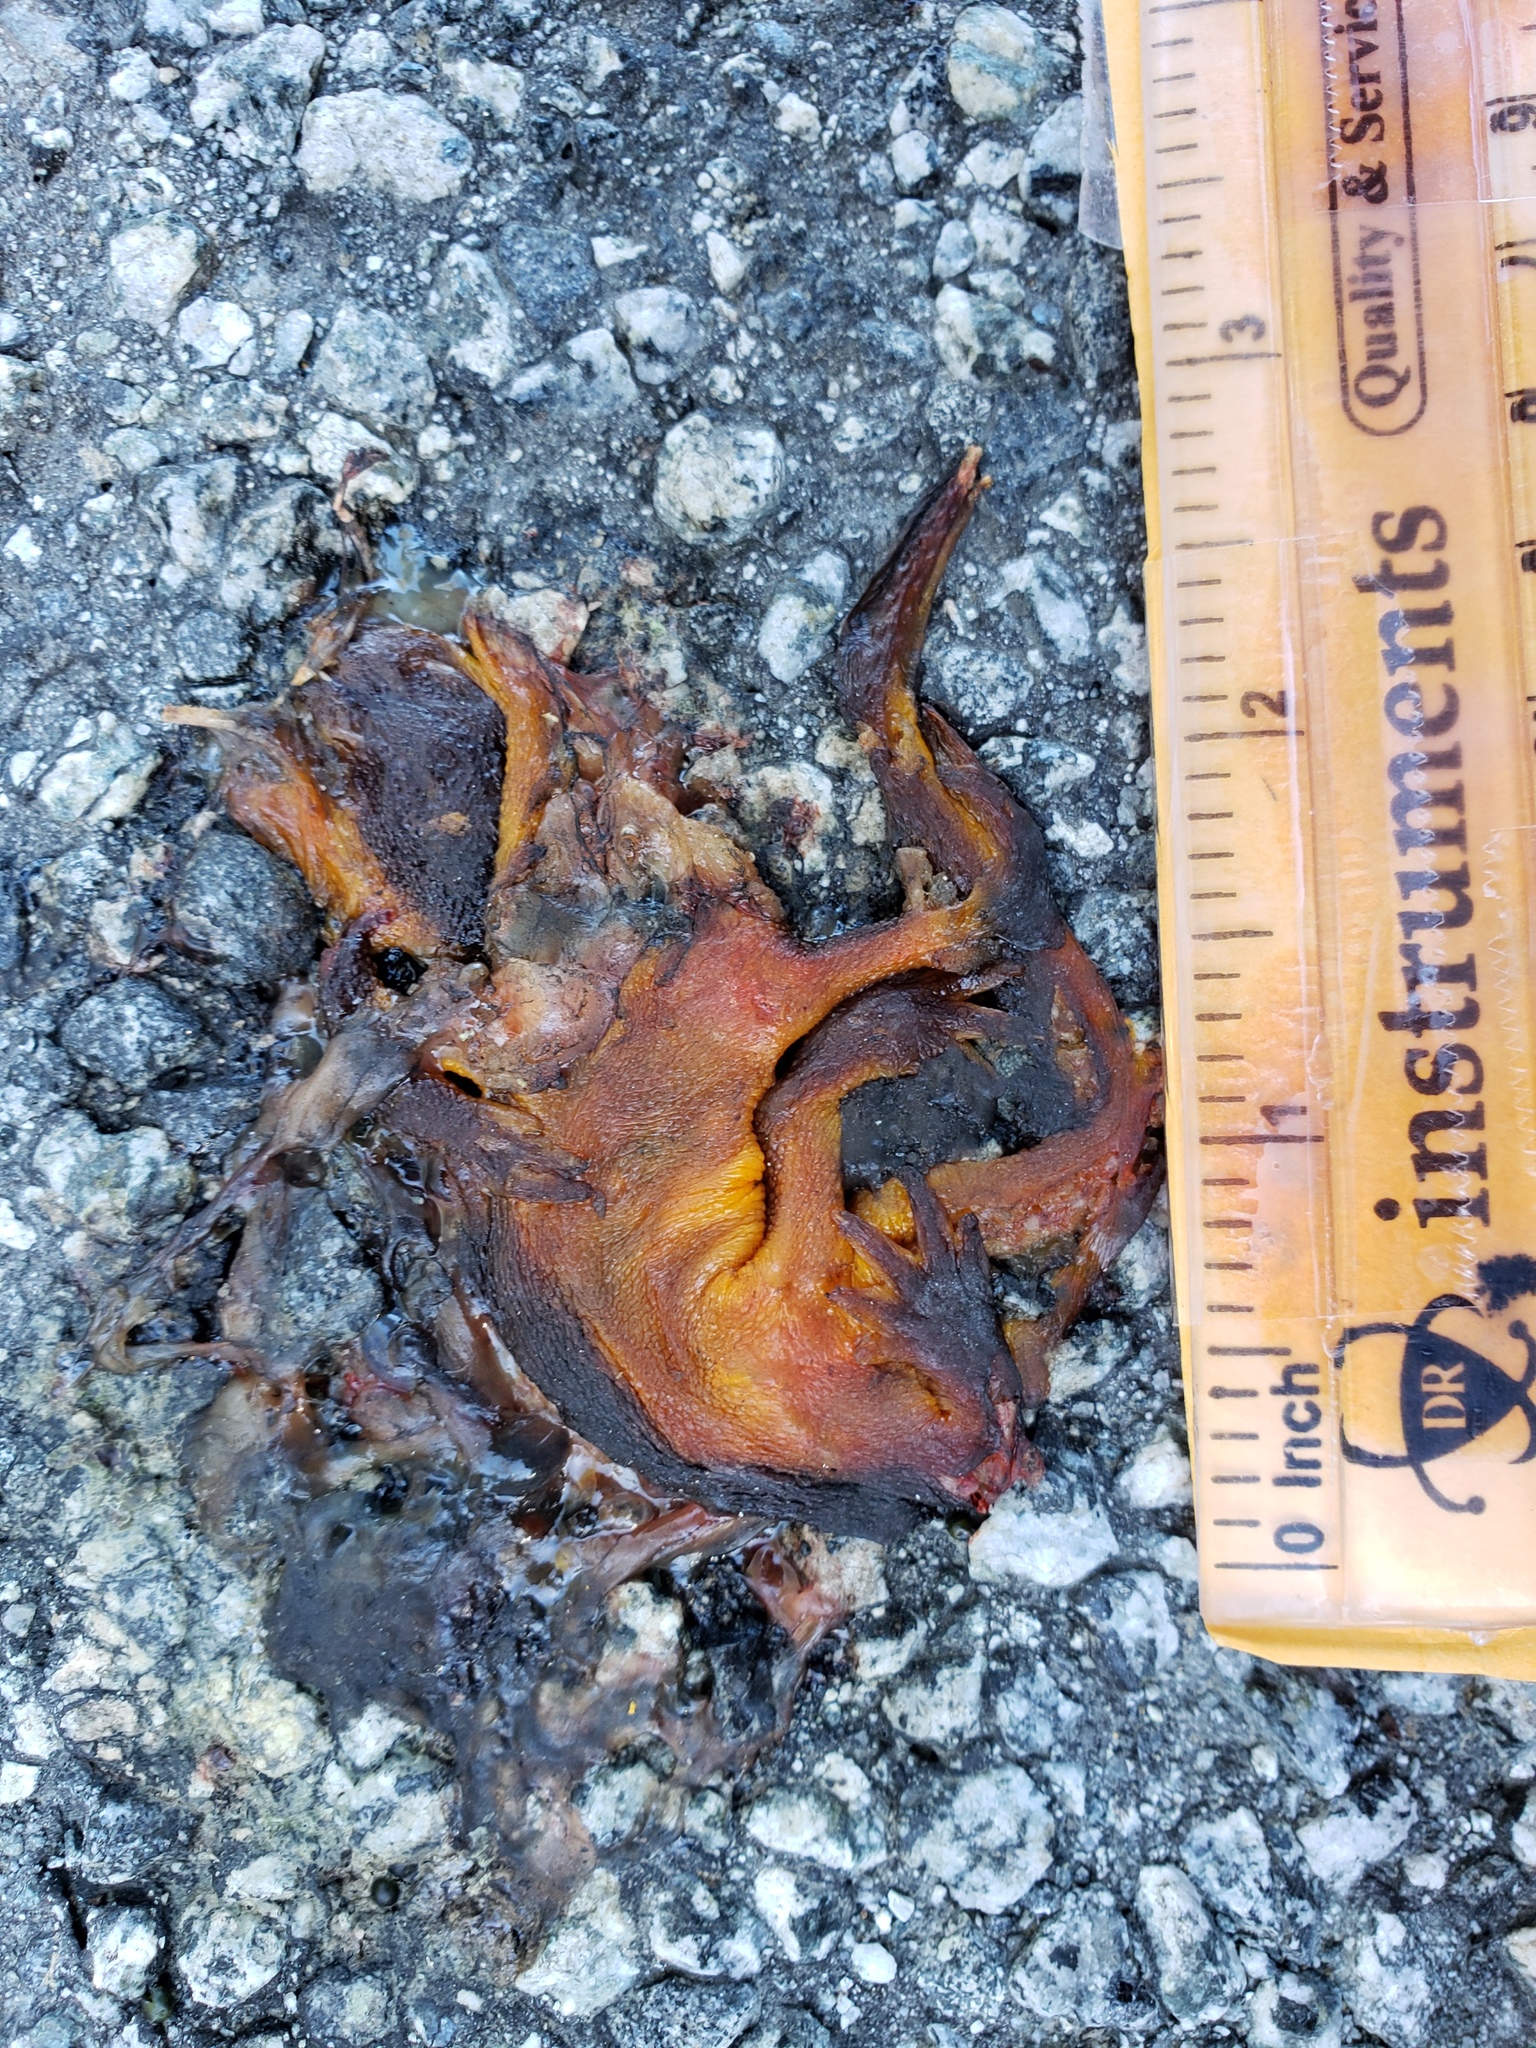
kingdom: Animalia
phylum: Chordata
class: Amphibia
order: Caudata
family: Salamandridae
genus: Taricha
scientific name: Taricha
